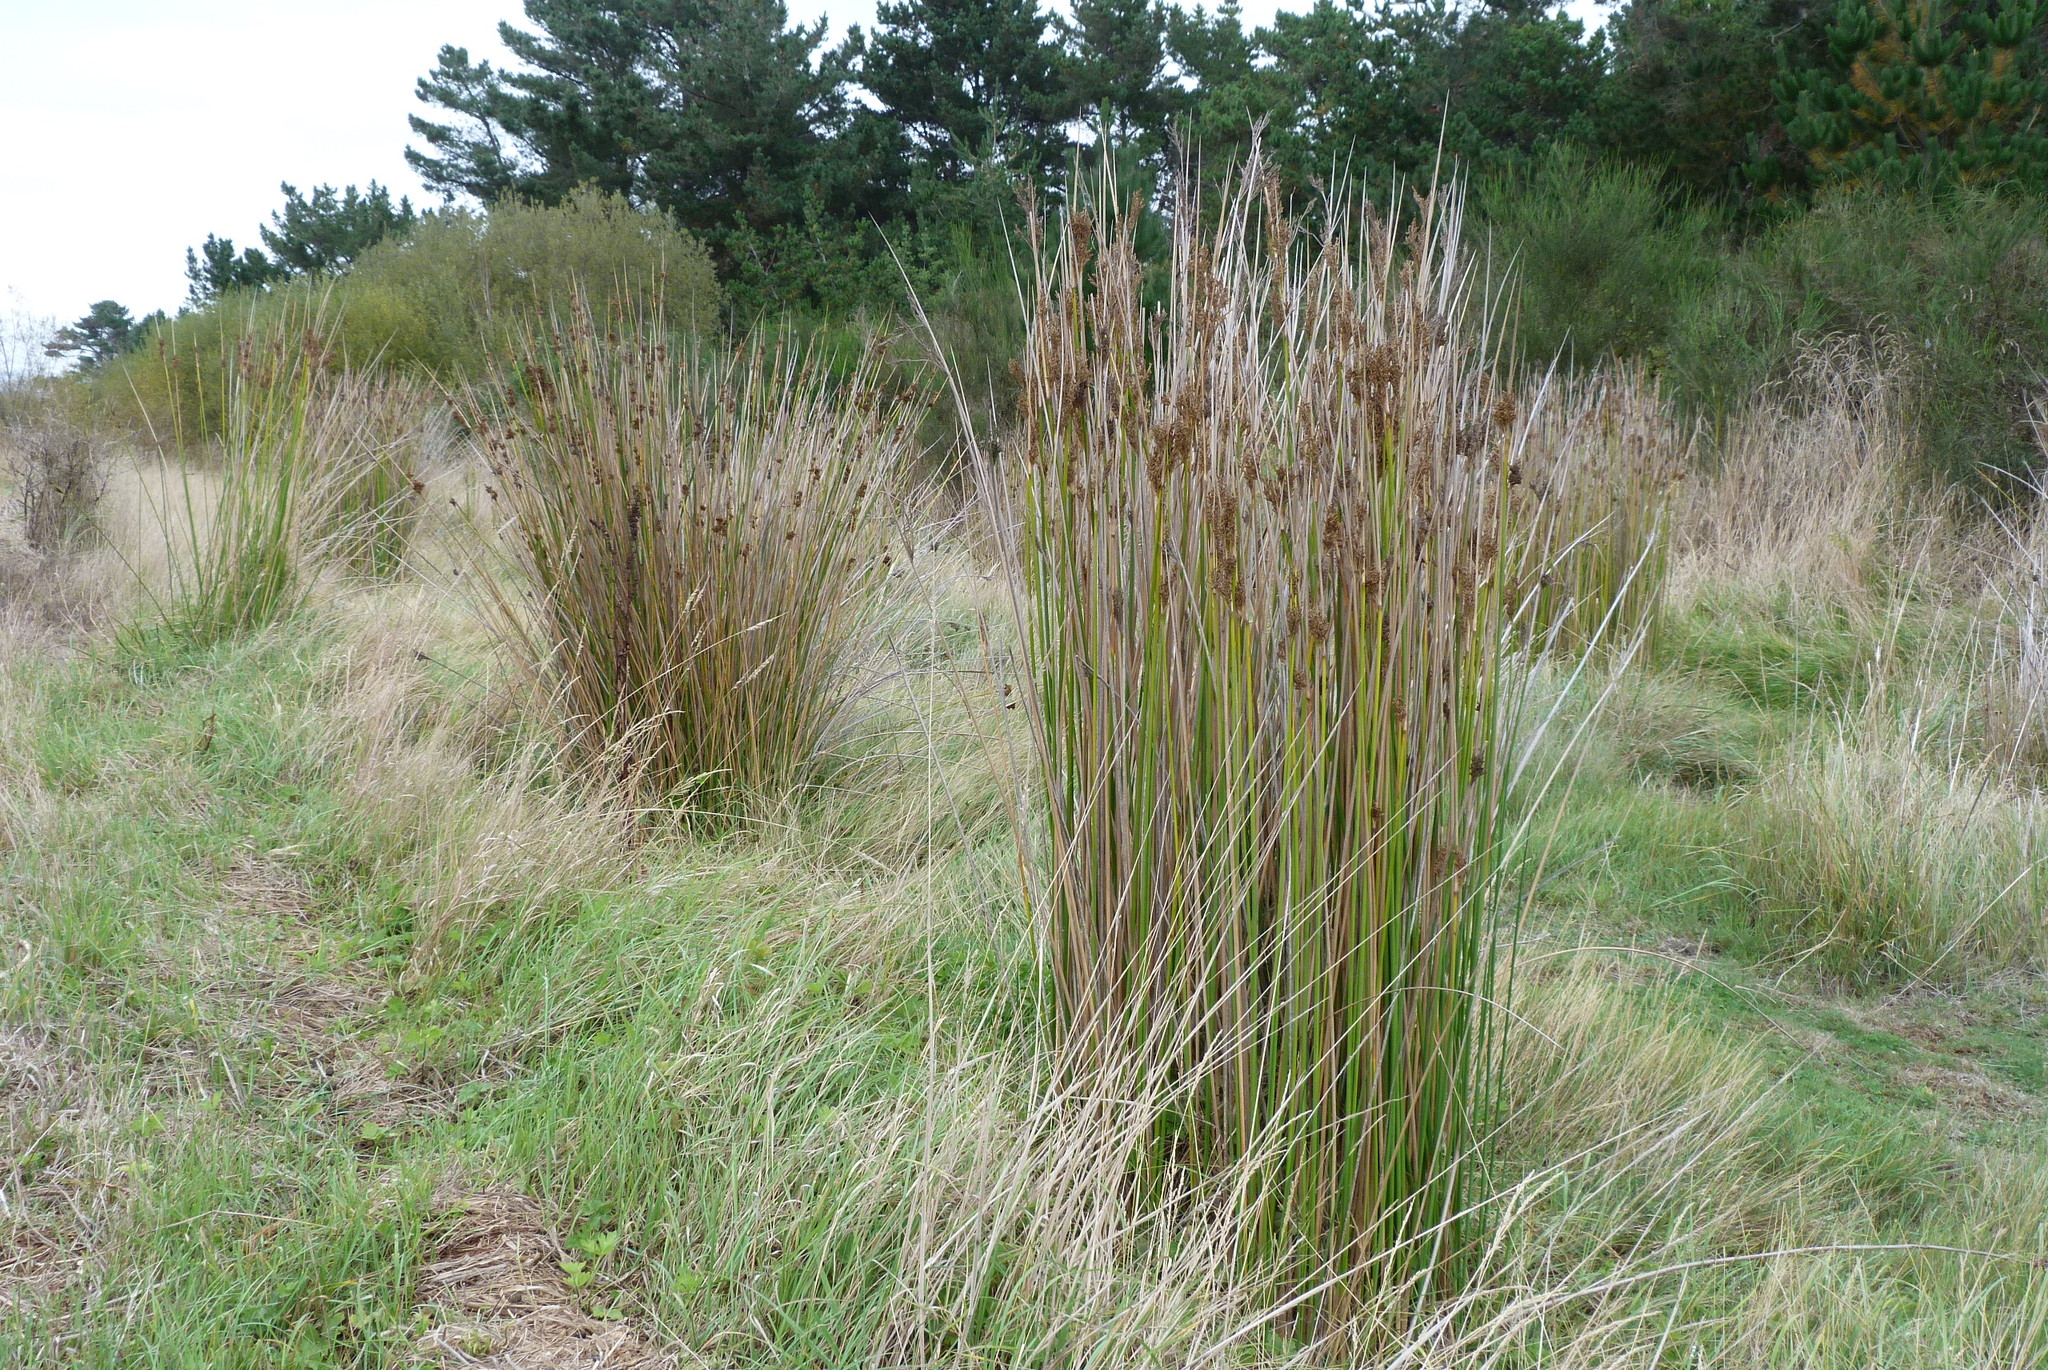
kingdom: Plantae
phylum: Tracheophyta
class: Liliopsida
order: Poales
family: Juncaceae
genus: Juncus
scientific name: Juncus pallidus
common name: Great soft-rush
